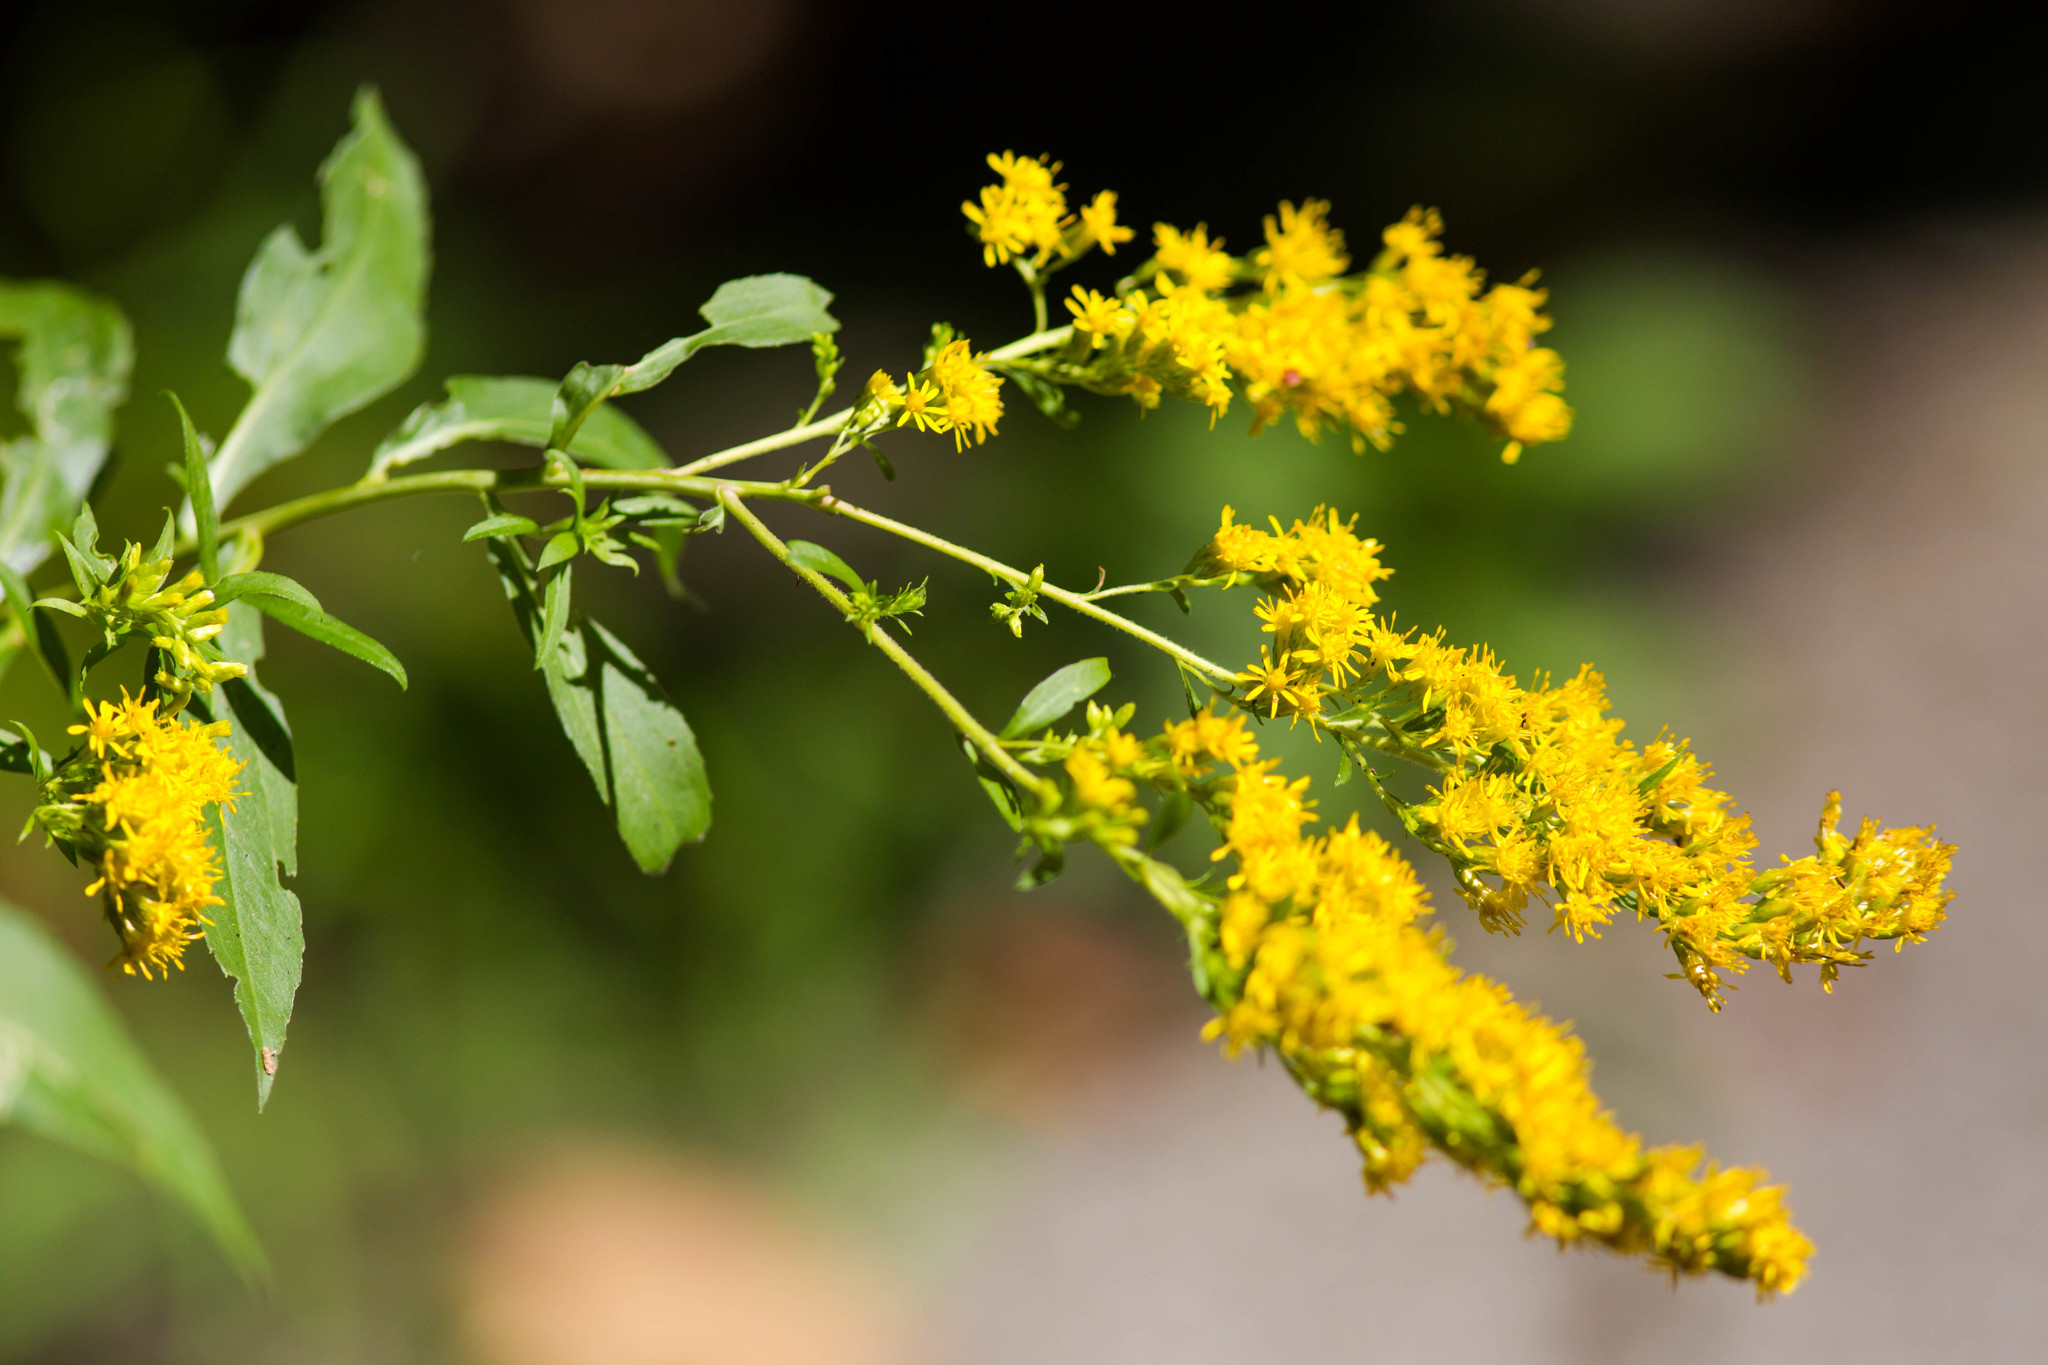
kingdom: Plantae
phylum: Tracheophyta
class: Magnoliopsida
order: Asterales
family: Asteraceae
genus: Solidago
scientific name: Solidago canadensis
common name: Canada goldenrod
